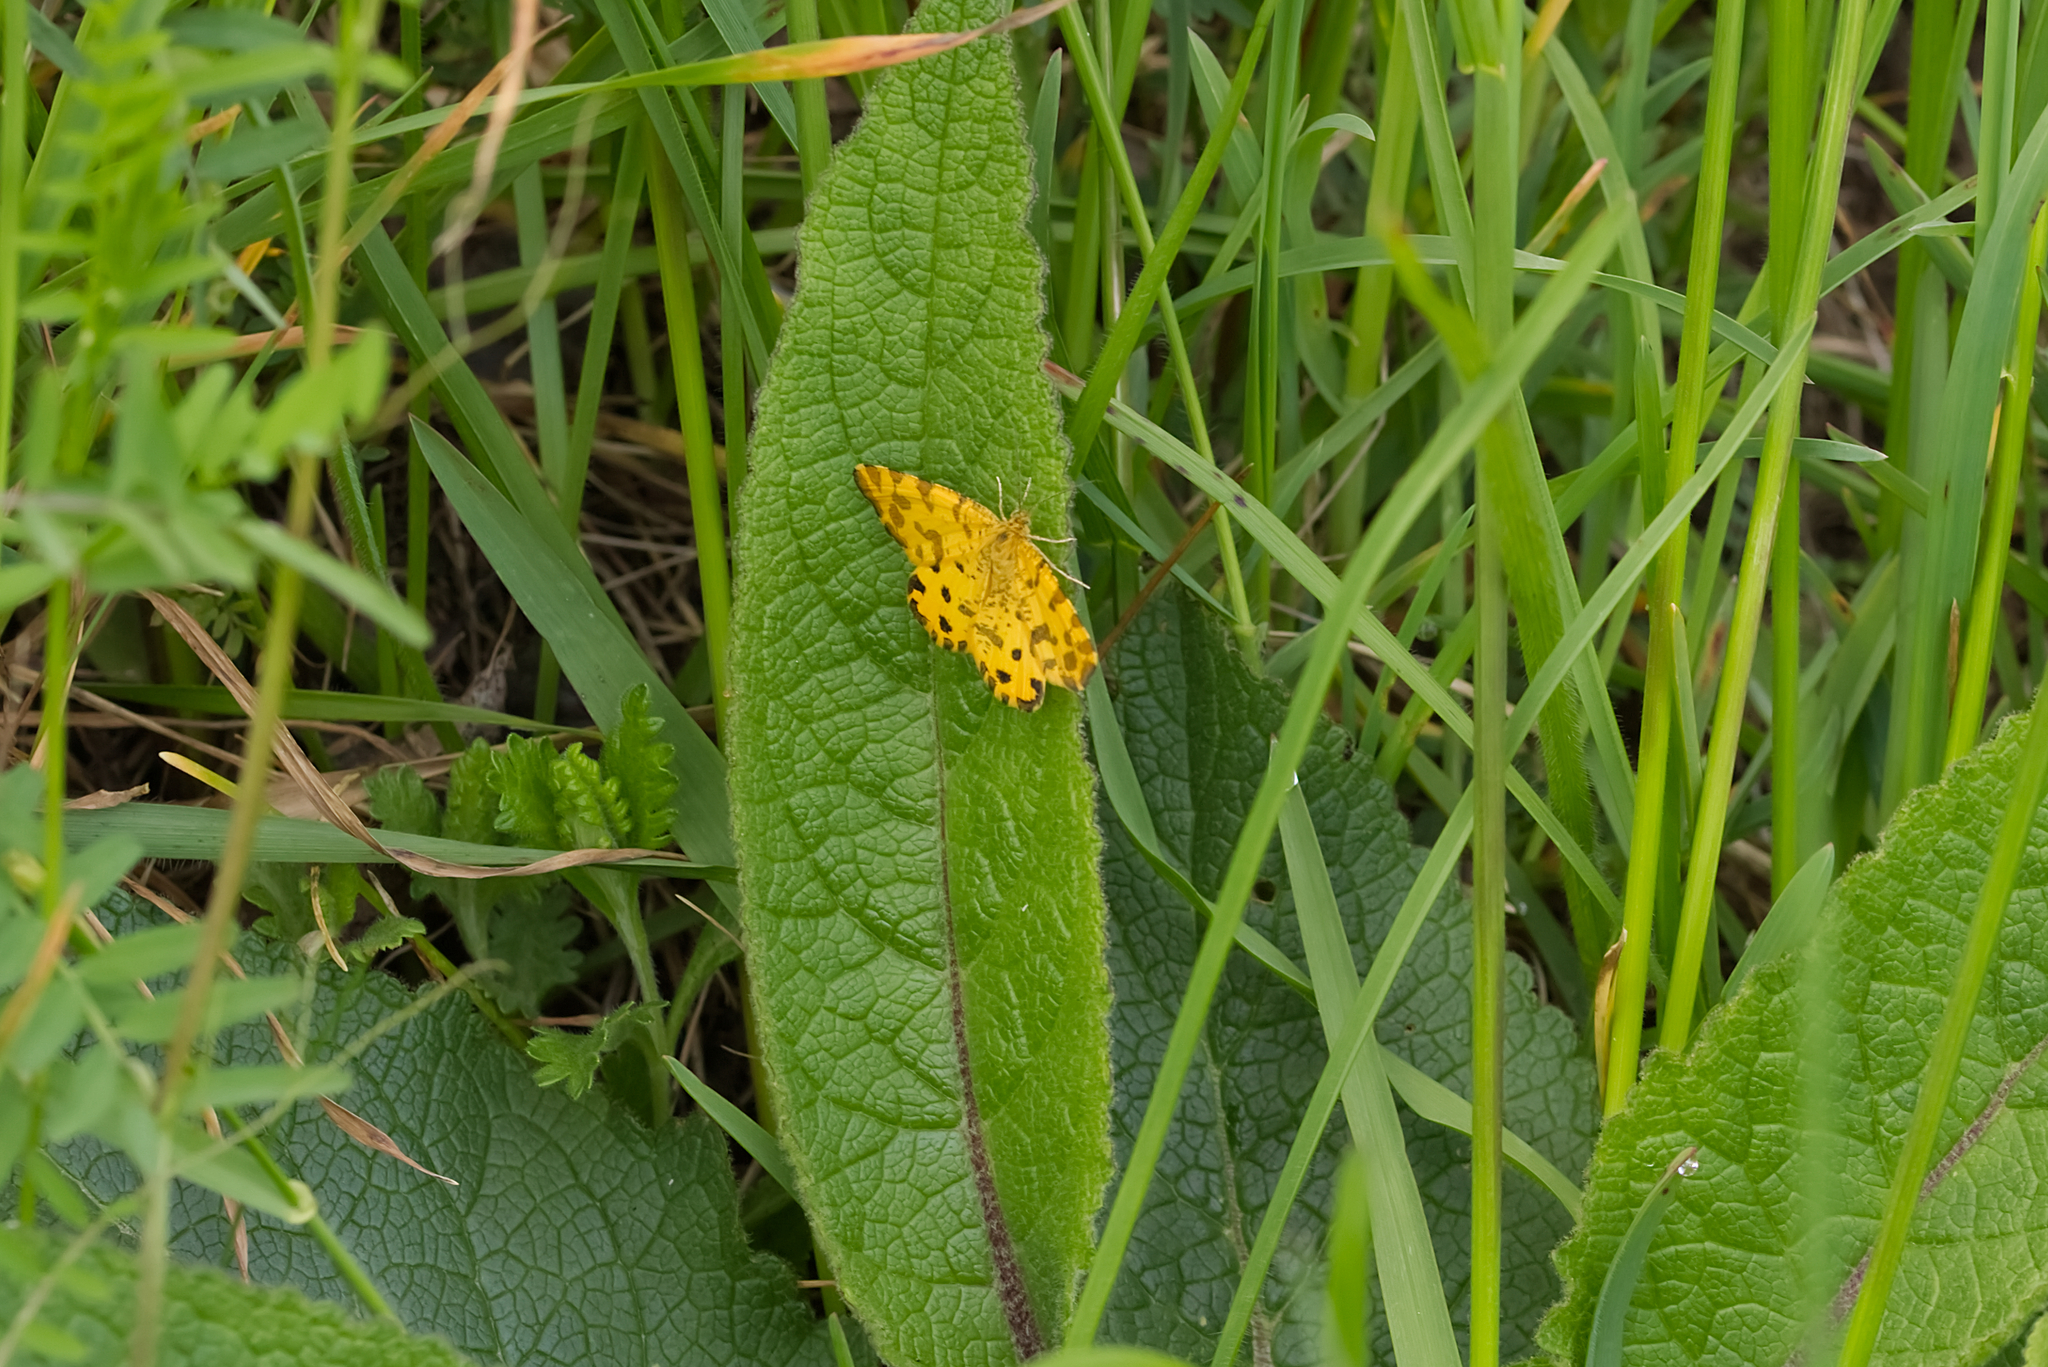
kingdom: Animalia
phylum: Arthropoda
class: Insecta
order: Lepidoptera
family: Geometridae
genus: Pseudopanthera
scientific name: Pseudopanthera macularia
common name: Speckled yellow
